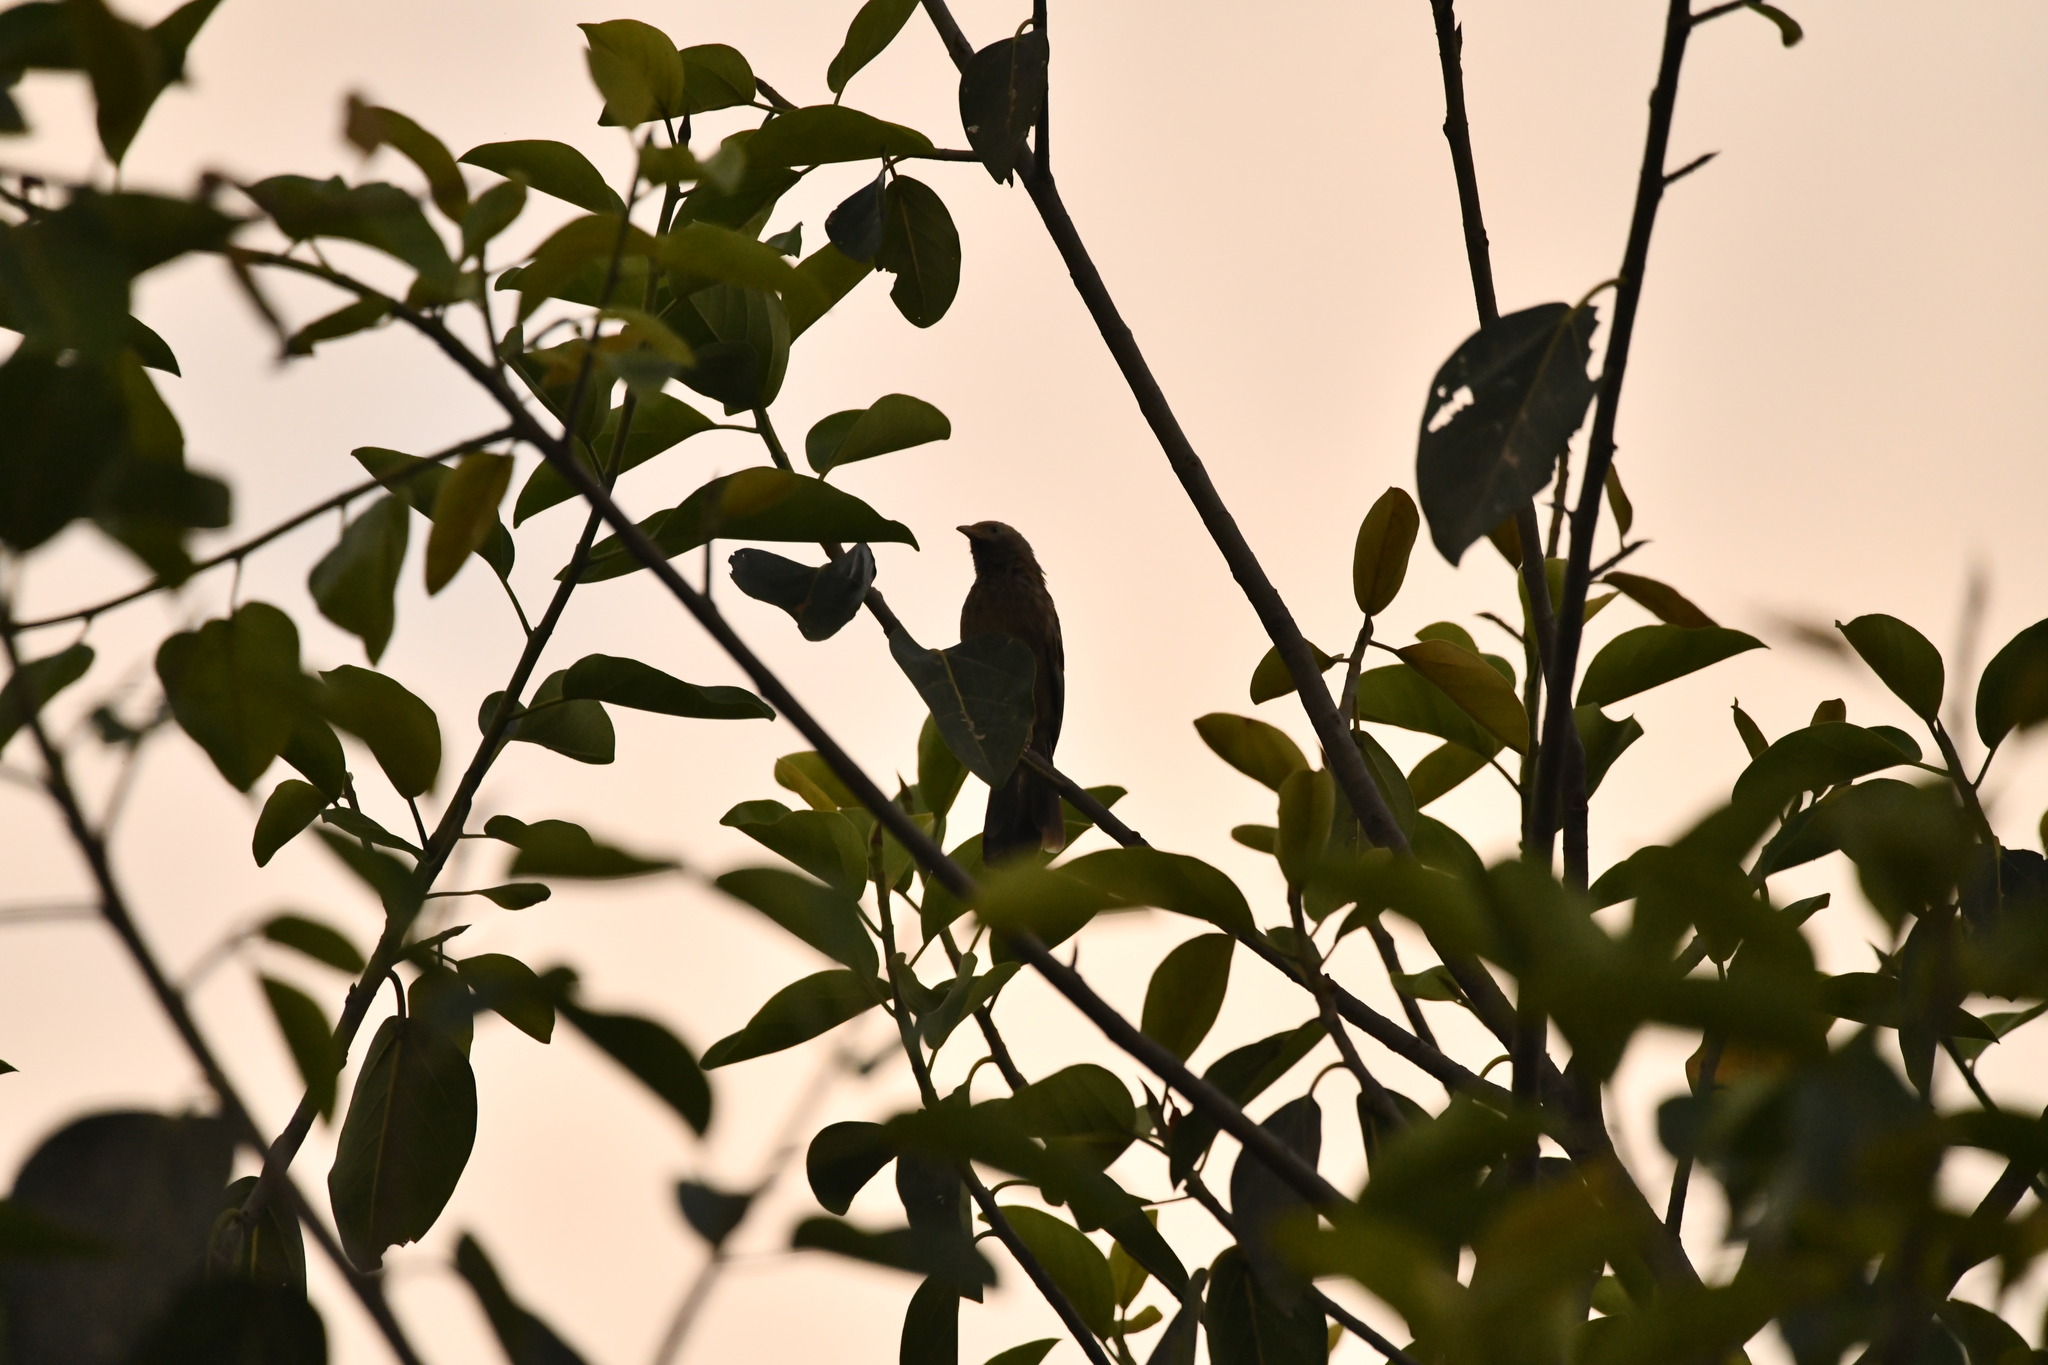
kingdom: Animalia
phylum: Chordata
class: Aves
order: Passeriformes
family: Leiothrichidae
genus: Turdoides
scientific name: Turdoides affinis
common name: Yellow-billed babbler
